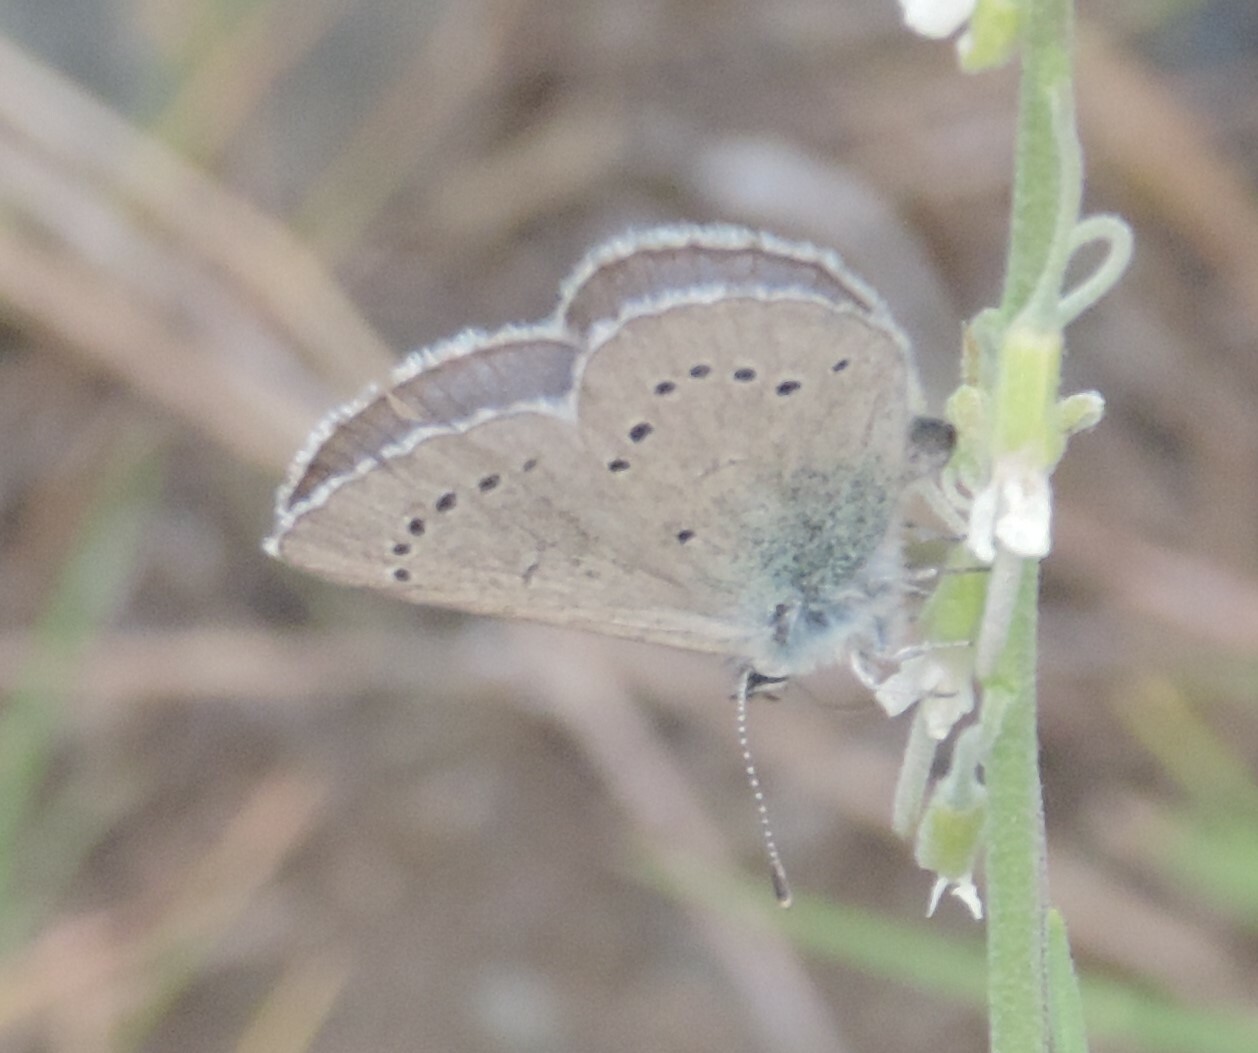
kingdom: Animalia
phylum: Arthropoda
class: Insecta
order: Lepidoptera
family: Lycaenidae
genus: Glaucopsyche
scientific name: Glaucopsyche lygdamus
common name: Silvery blue
